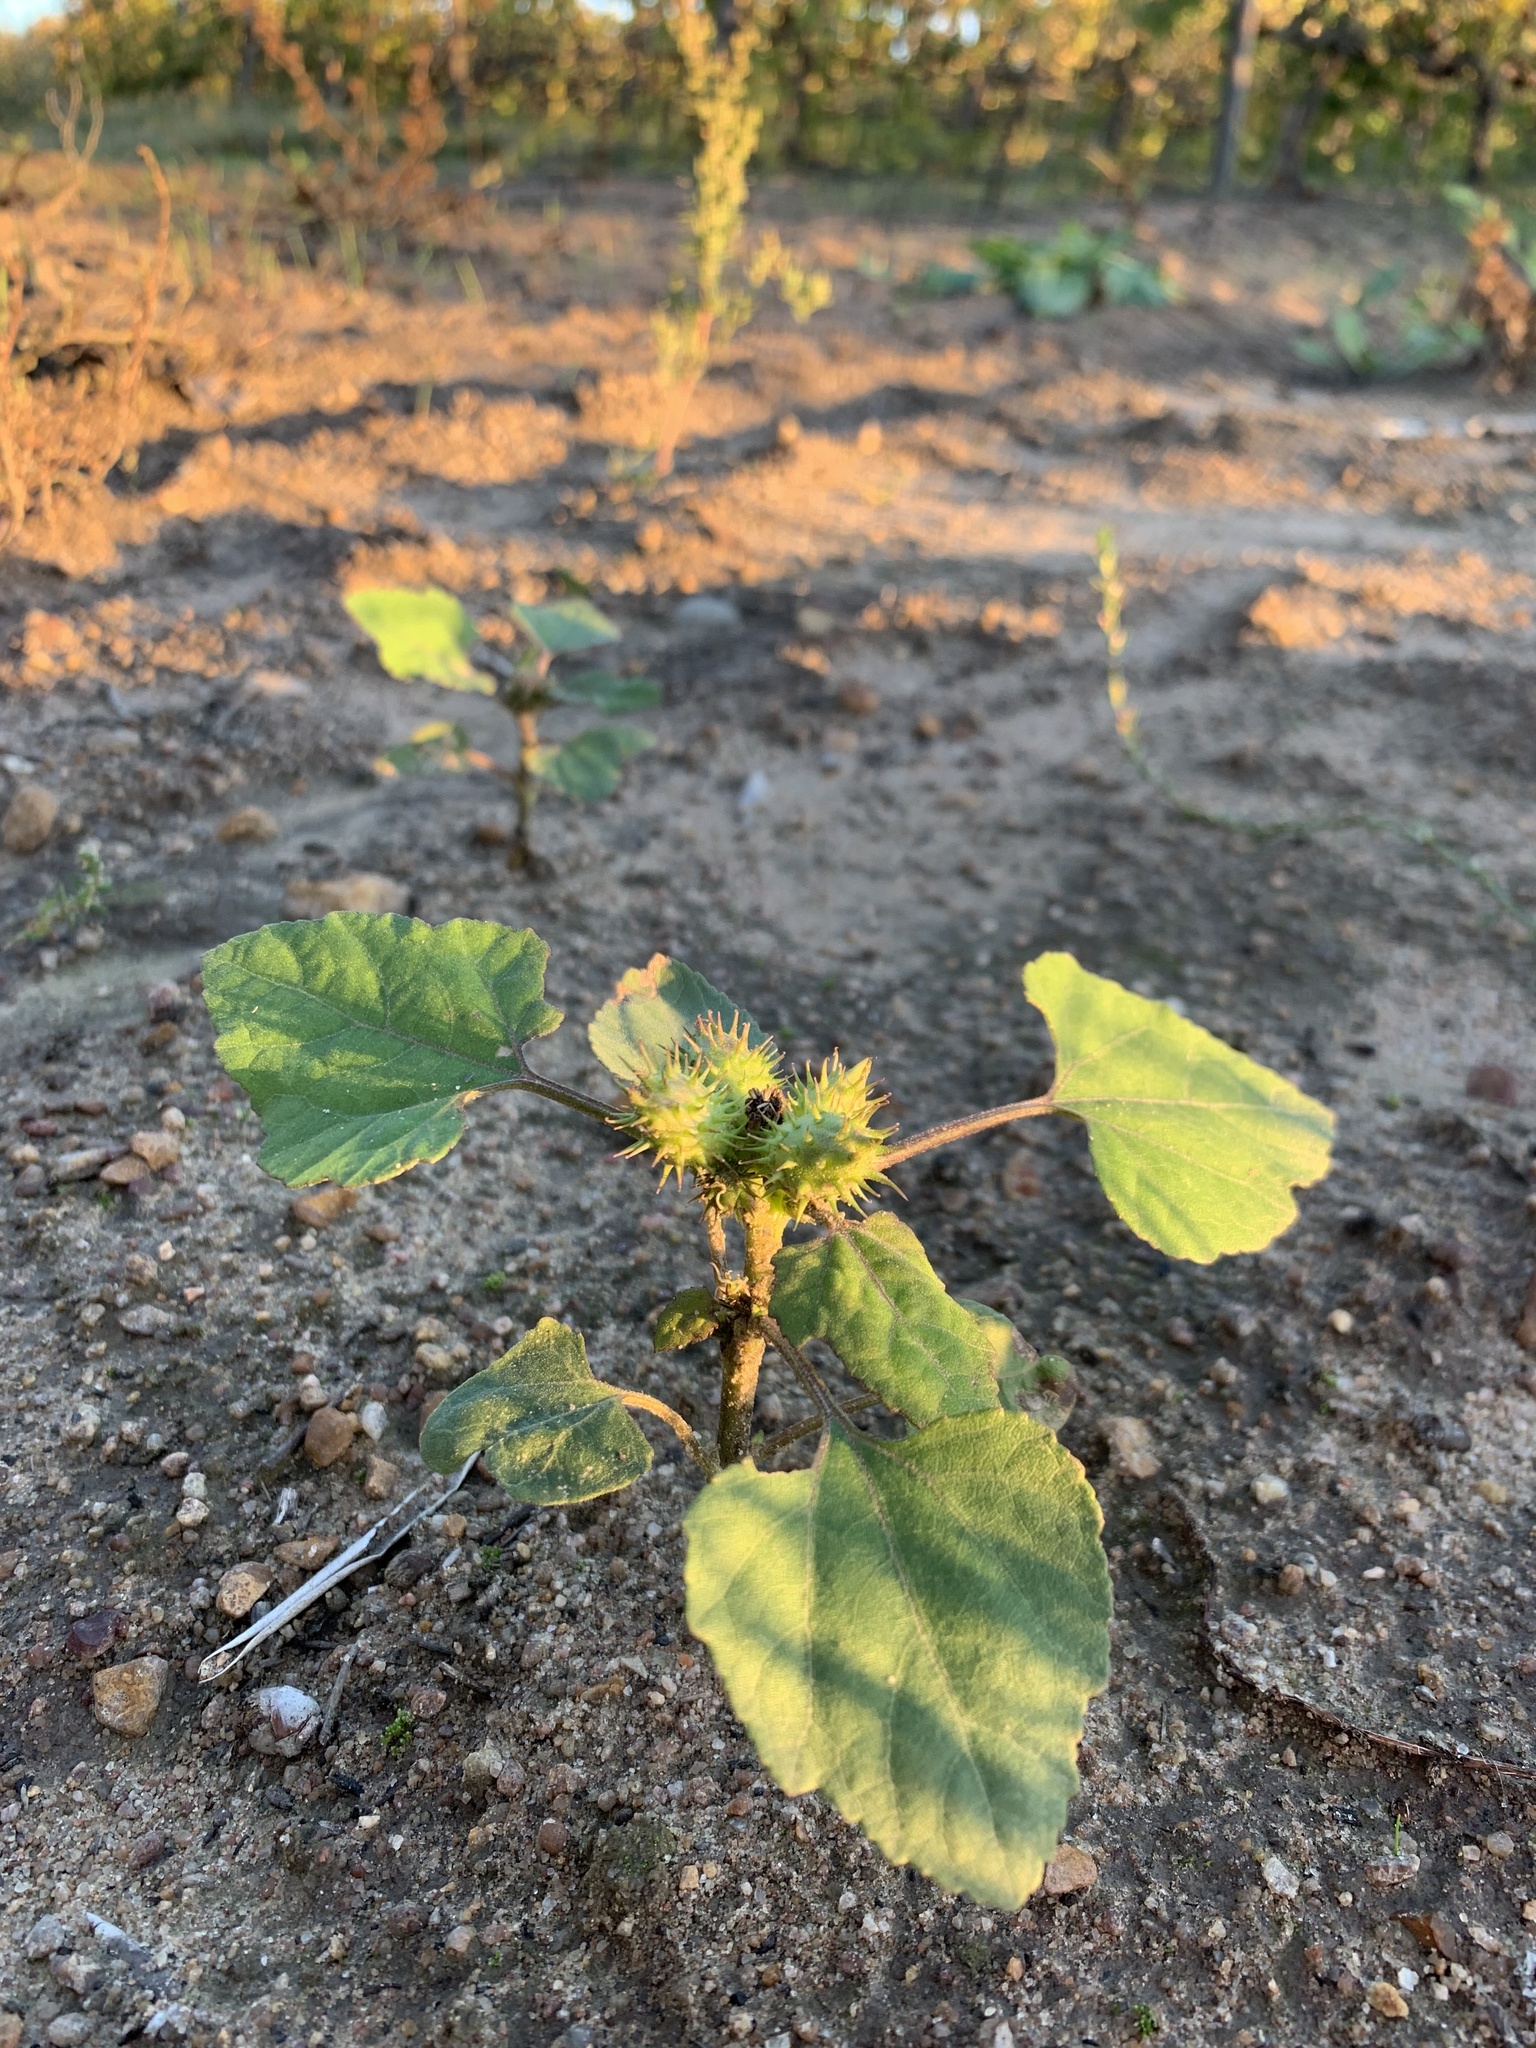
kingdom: Plantae
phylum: Tracheophyta
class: Magnoliopsida
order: Asterales
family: Asteraceae
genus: Xanthium
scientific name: Xanthium strumarium
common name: Rough cocklebur
